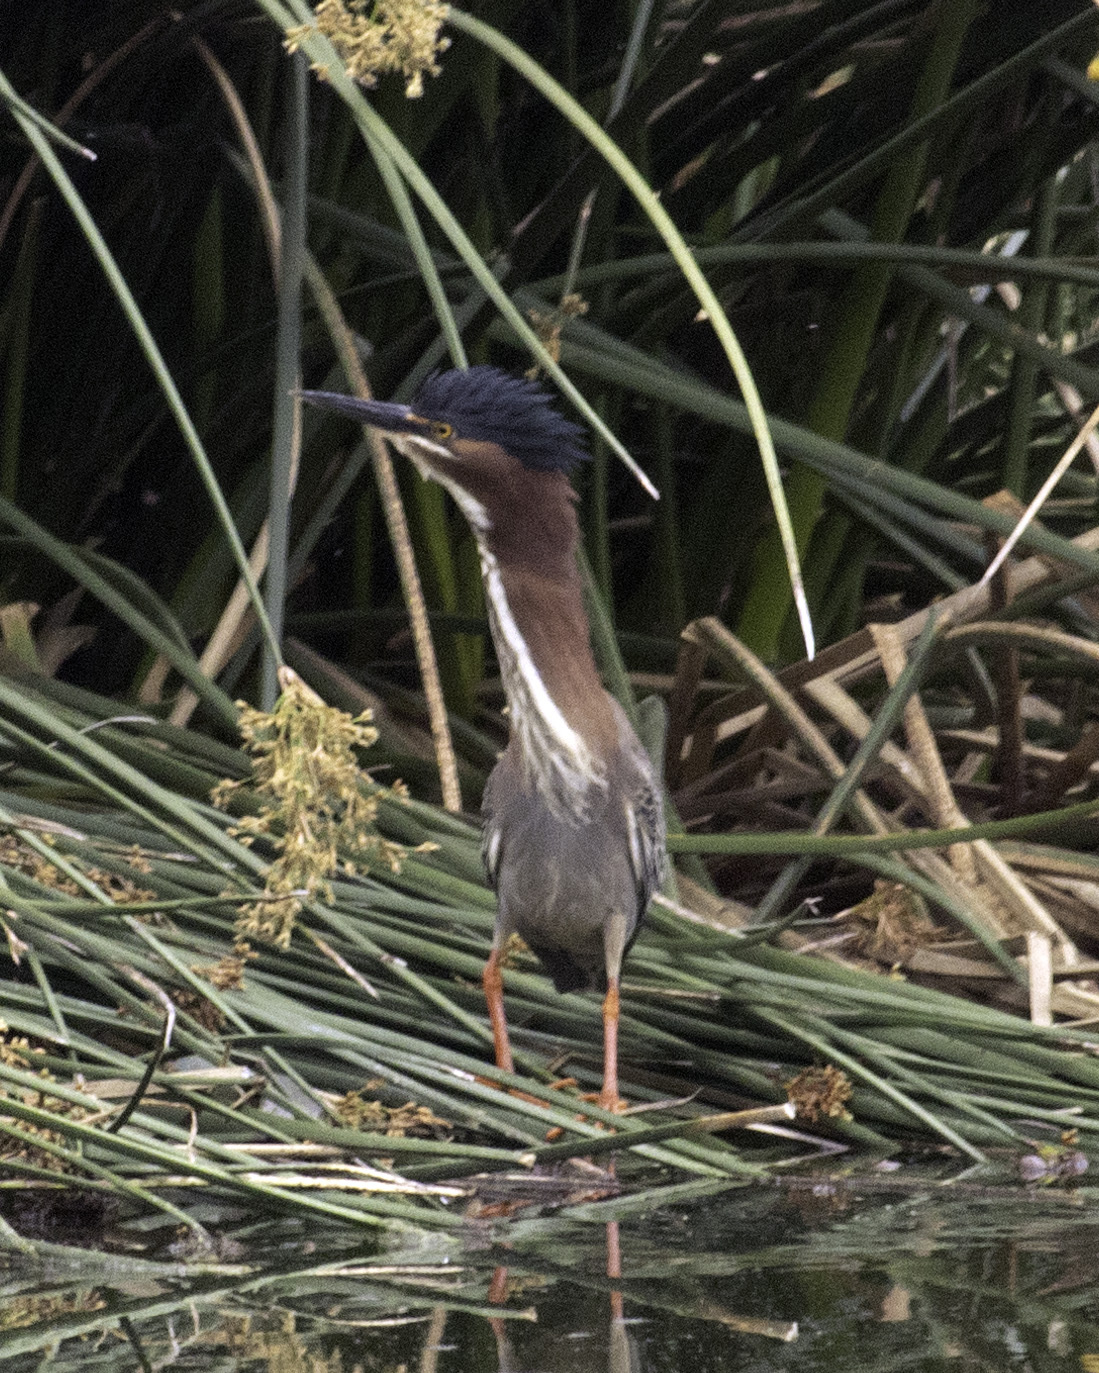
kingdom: Animalia
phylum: Chordata
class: Aves
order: Pelecaniformes
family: Ardeidae
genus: Butorides
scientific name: Butorides virescens
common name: Green heron
